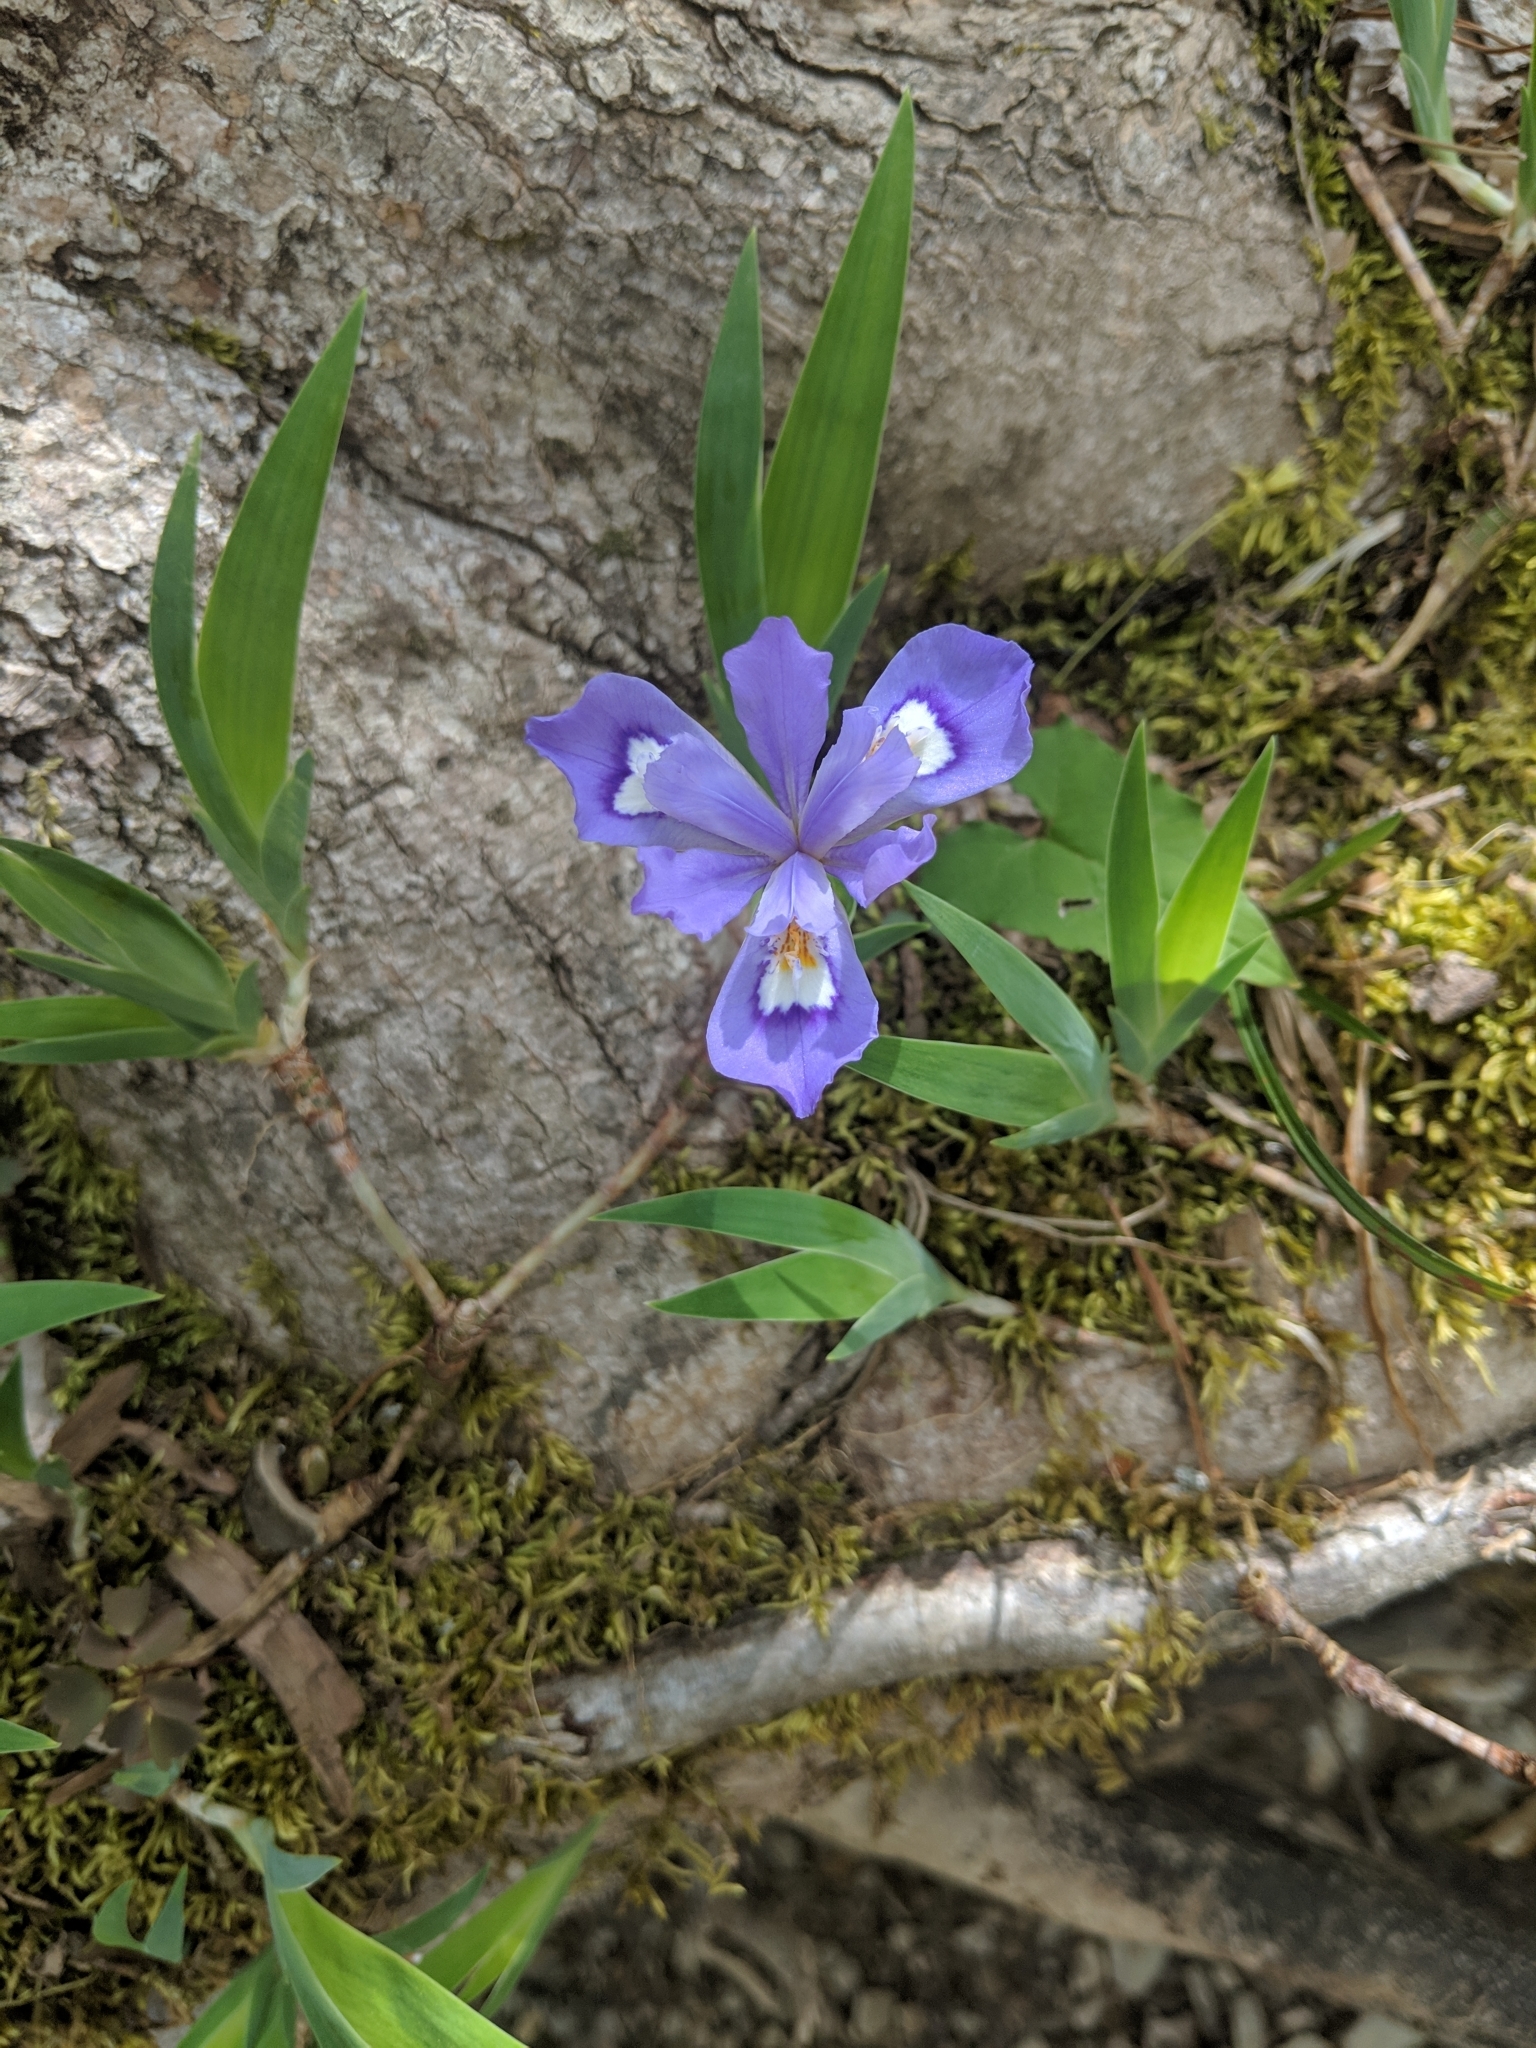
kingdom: Plantae
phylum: Tracheophyta
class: Liliopsida
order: Asparagales
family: Iridaceae
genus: Iris
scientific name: Iris cristata
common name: Crested iris
